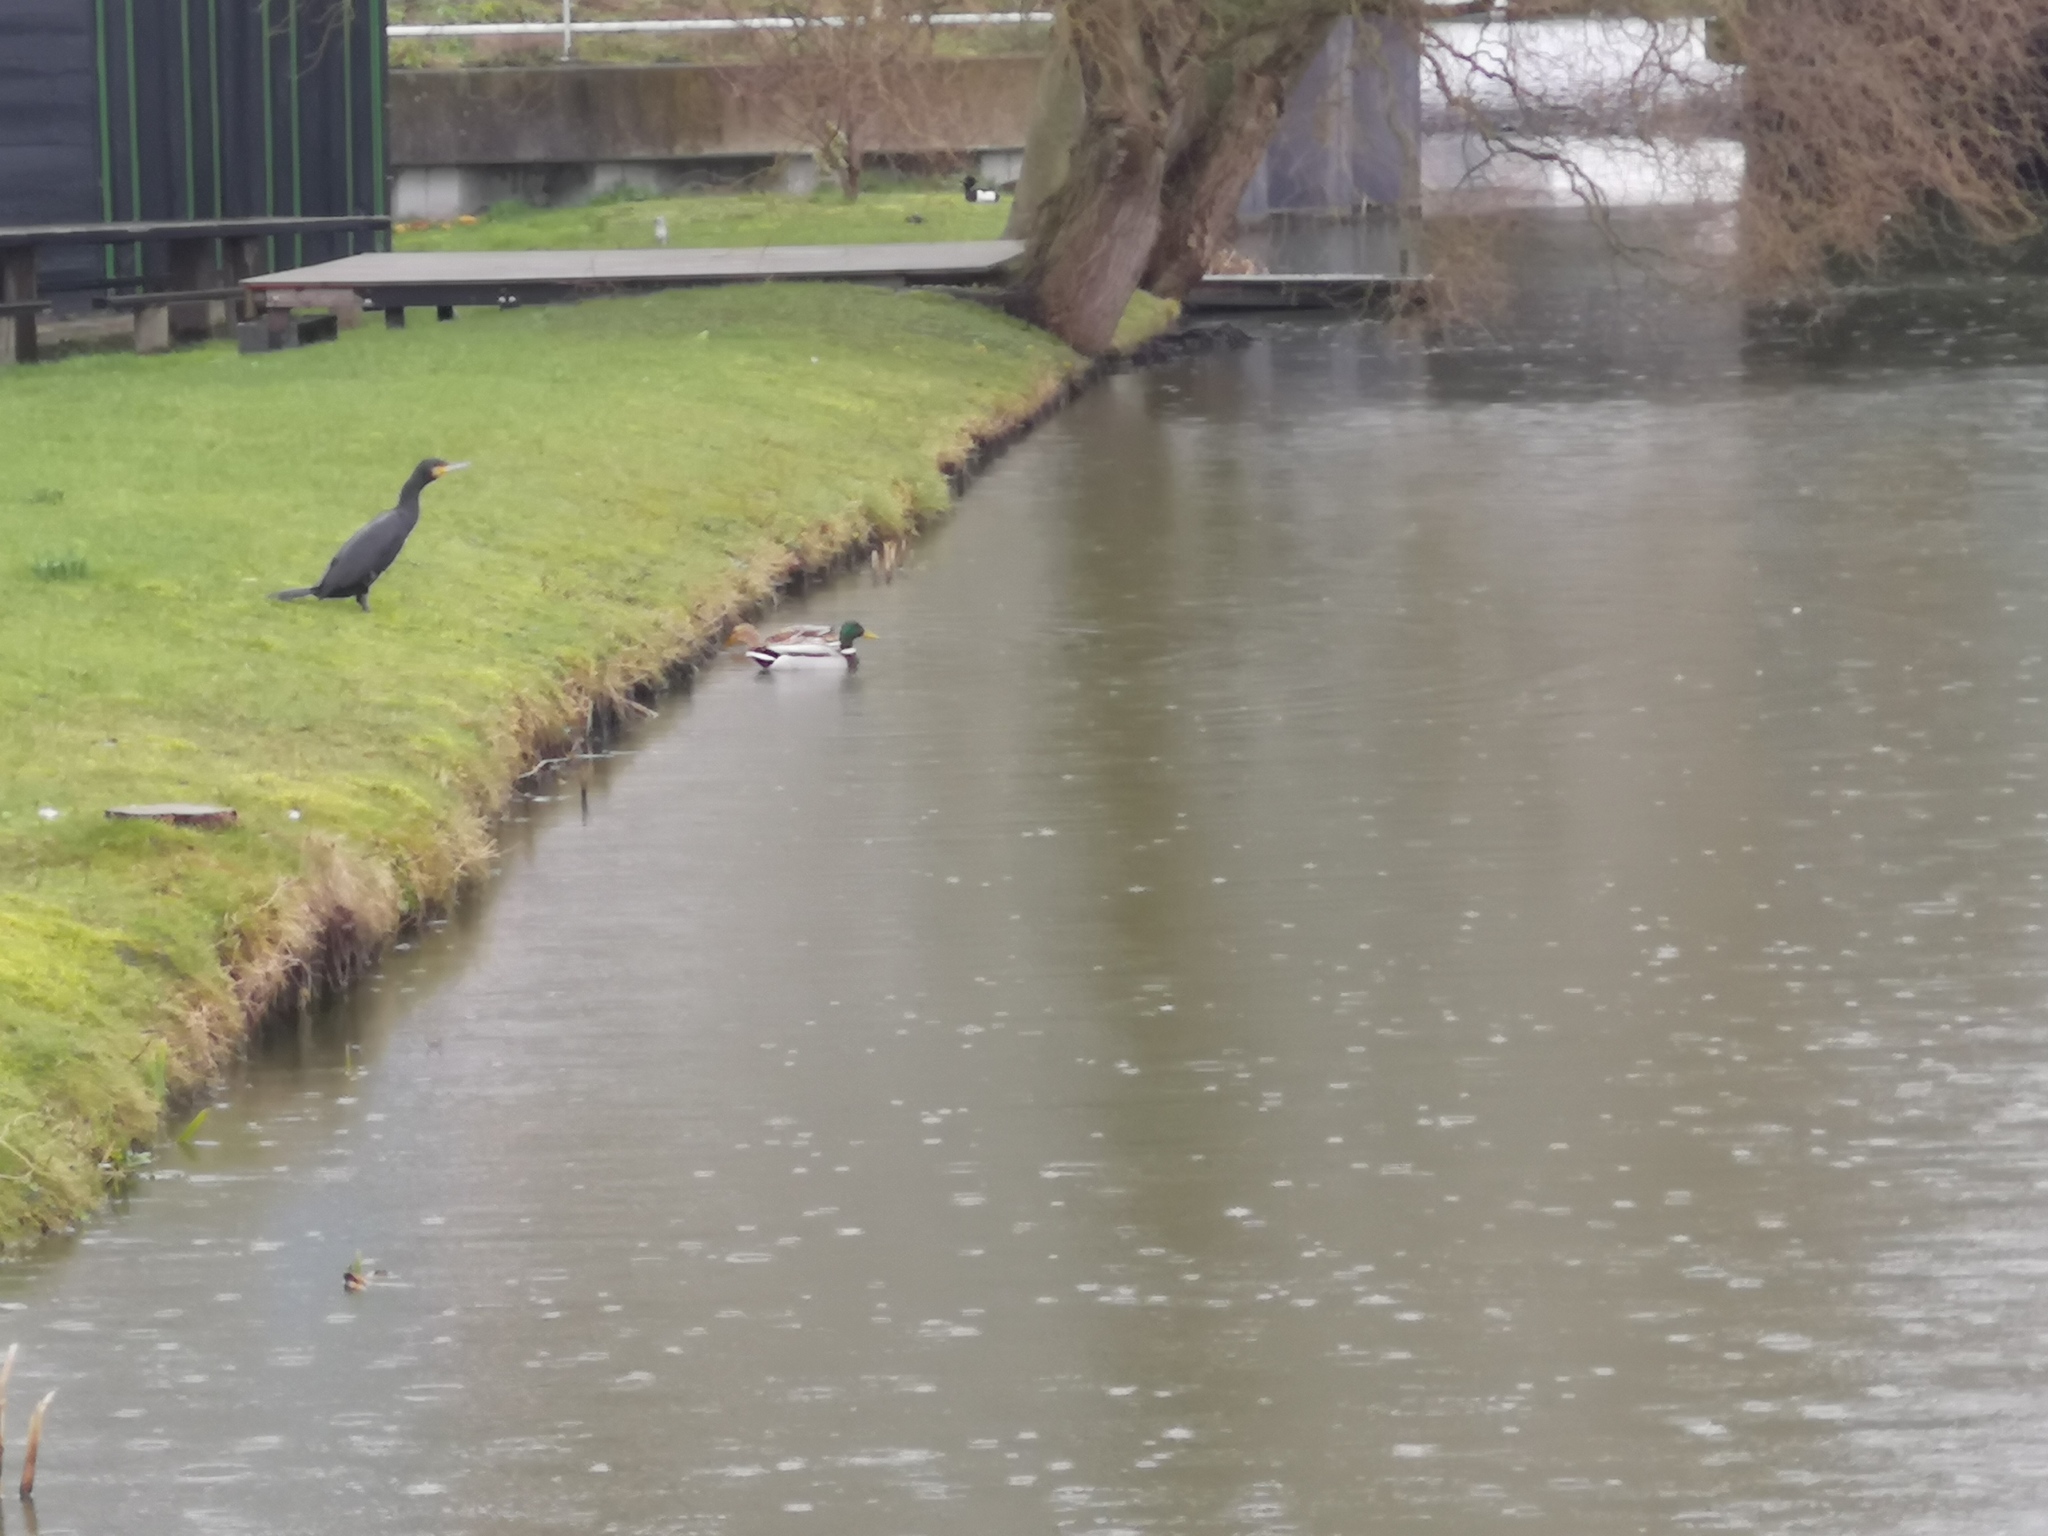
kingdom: Animalia
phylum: Chordata
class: Aves
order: Anseriformes
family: Anatidae
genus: Anas
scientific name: Anas platyrhynchos
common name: Mallard
